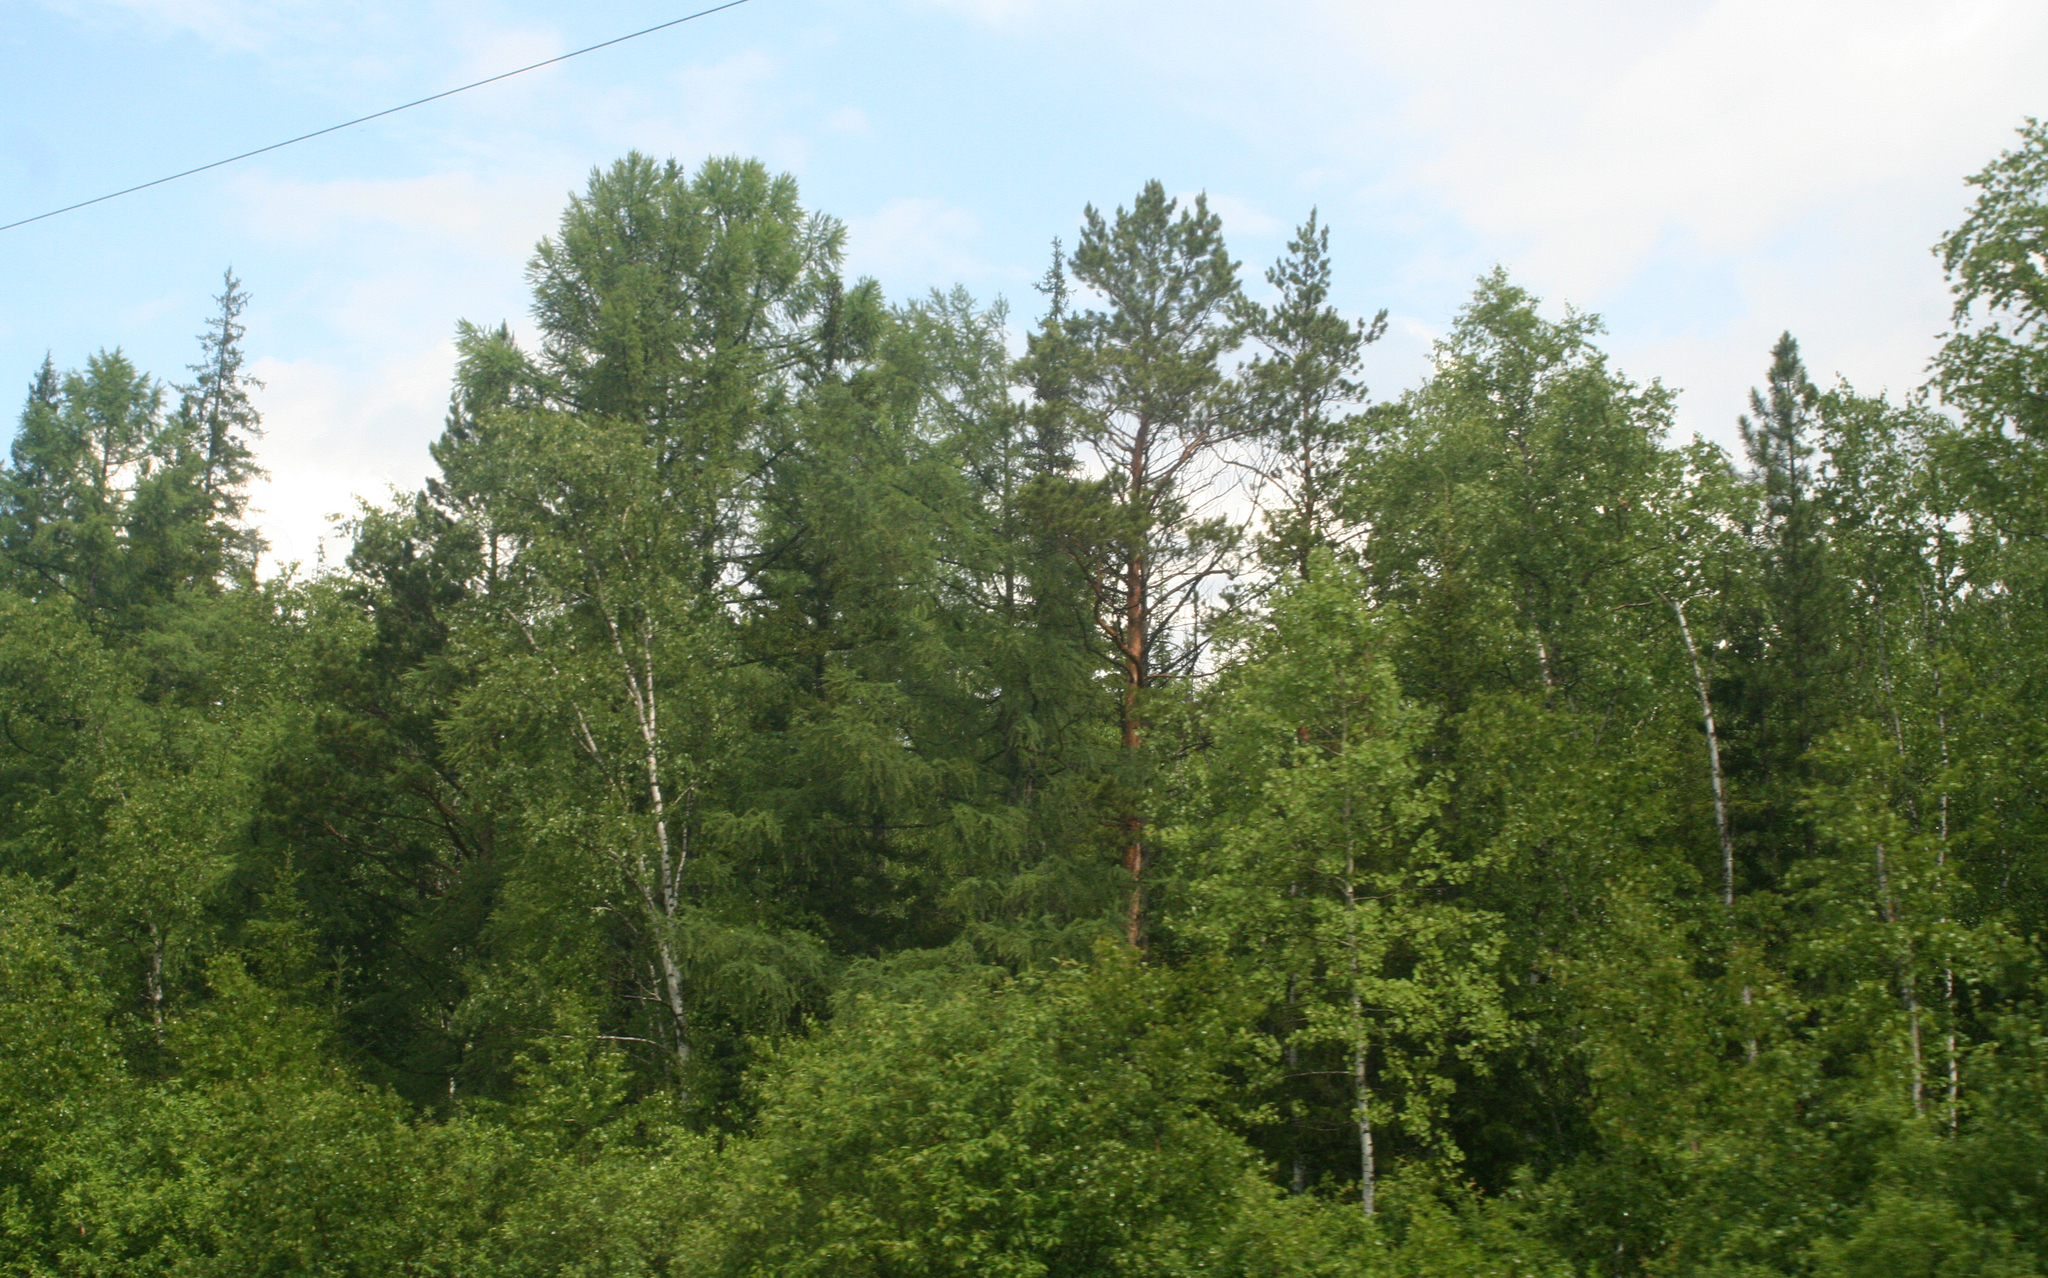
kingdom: Plantae
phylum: Tracheophyta
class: Pinopsida
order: Pinales
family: Pinaceae
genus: Larix
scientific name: Larix sibirica
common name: Siberian larch
